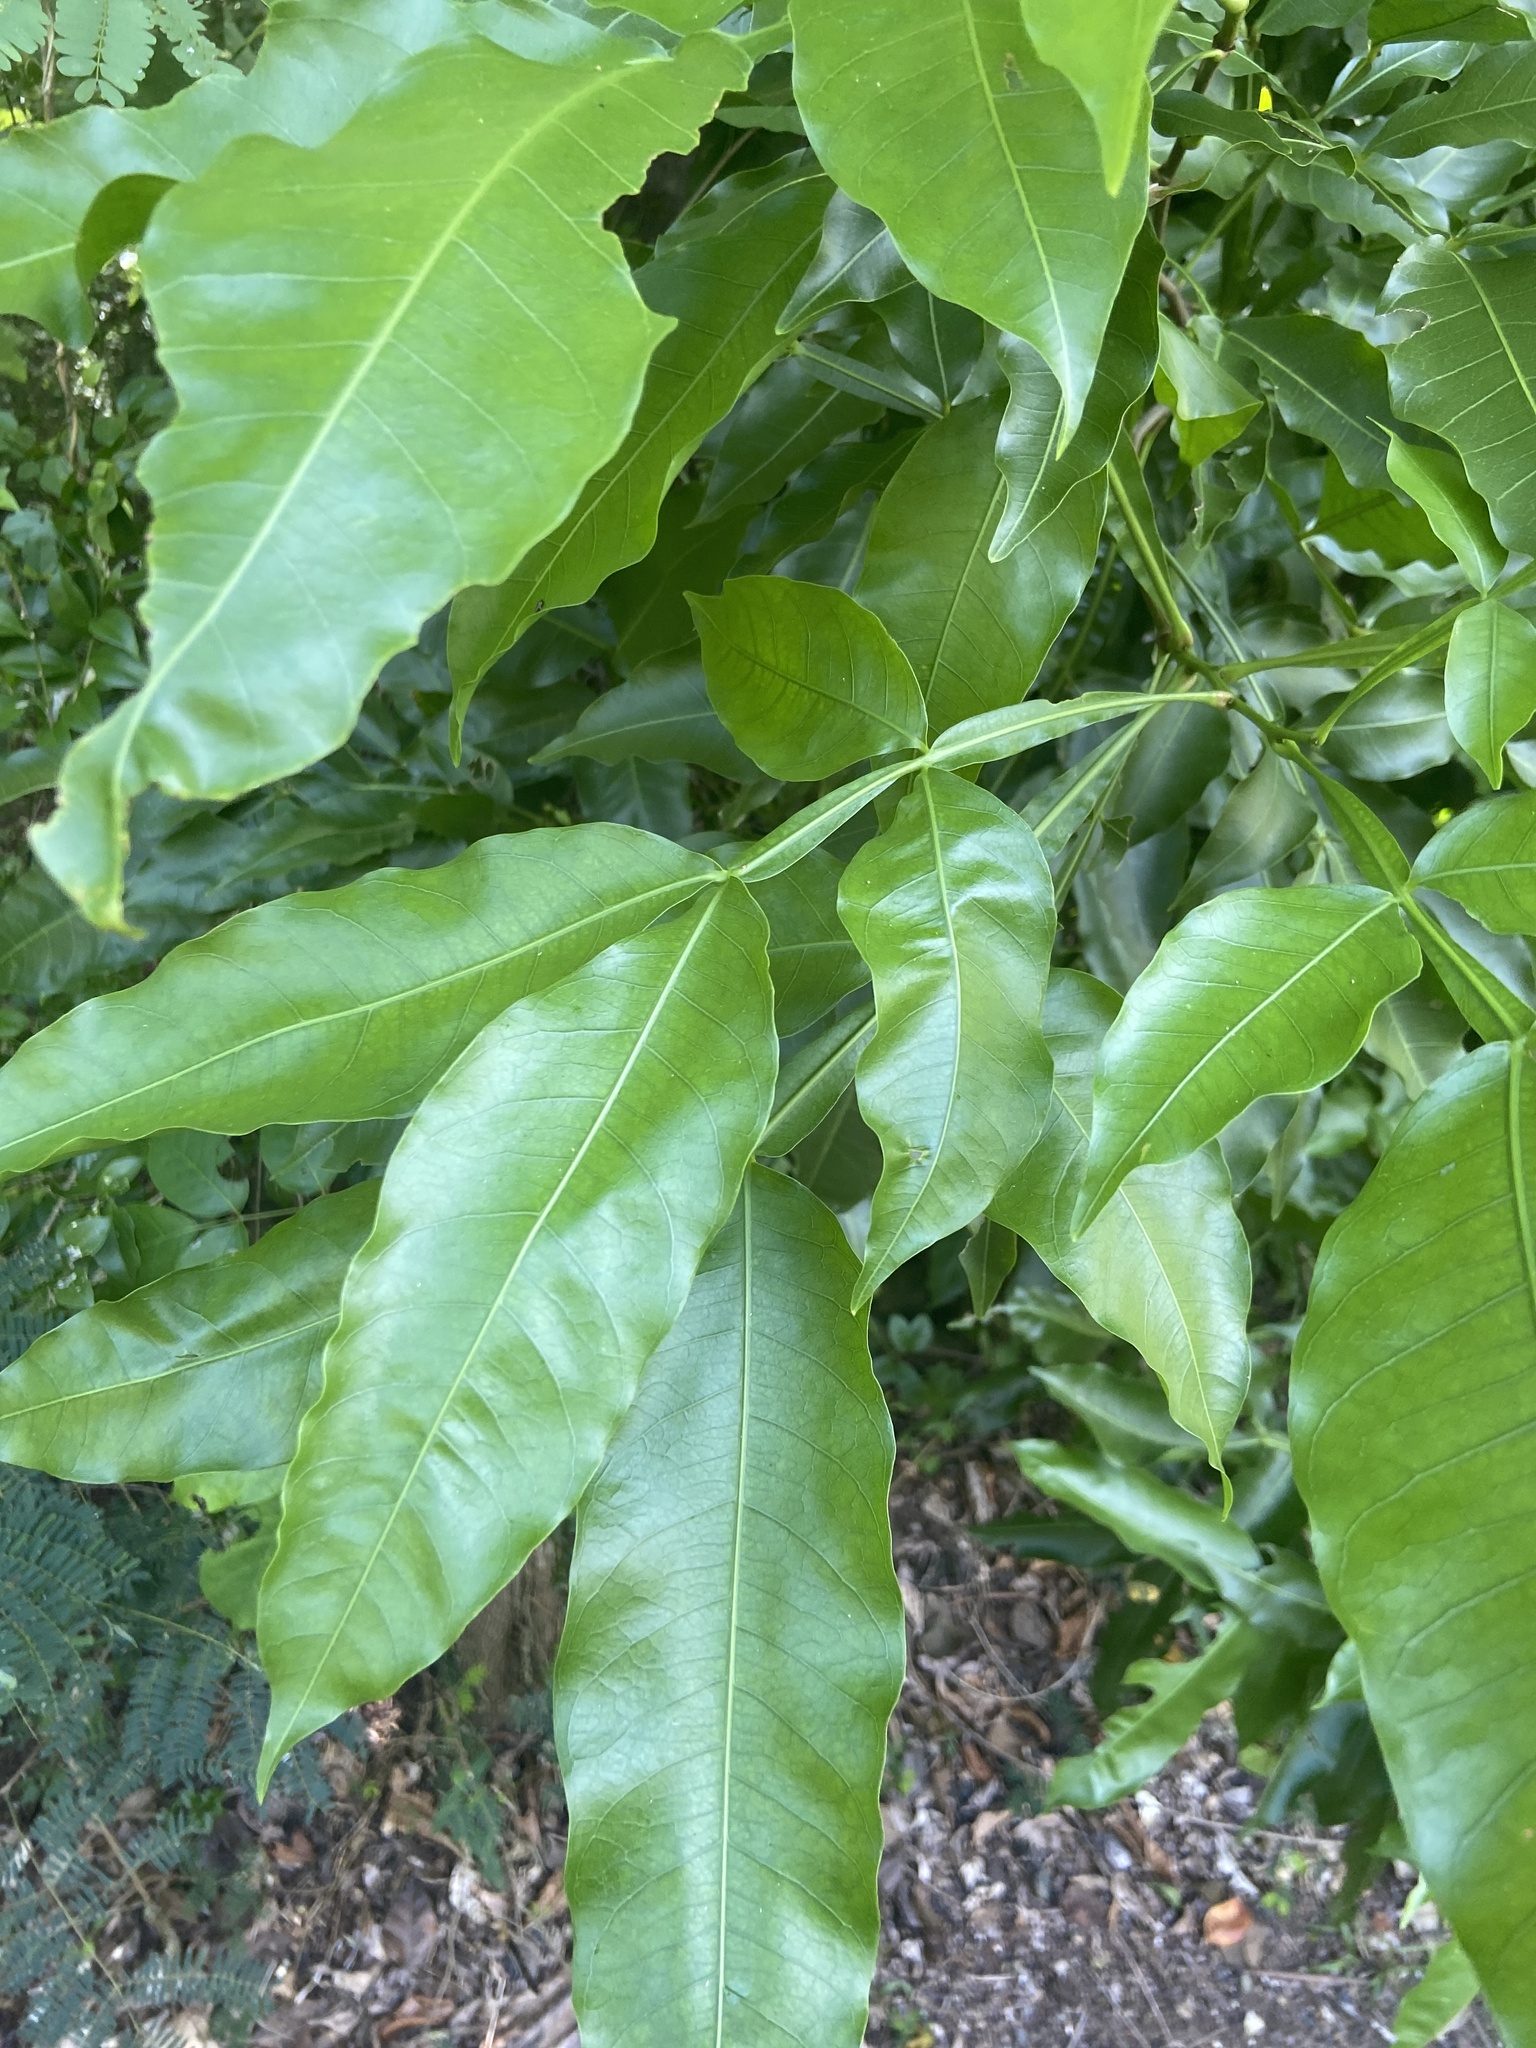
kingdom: Plantae
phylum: Tracheophyta
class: Magnoliopsida
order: Sapindales
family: Sapindaceae
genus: Melicoccus
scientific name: Melicoccus bijugatus
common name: Spanish lime
